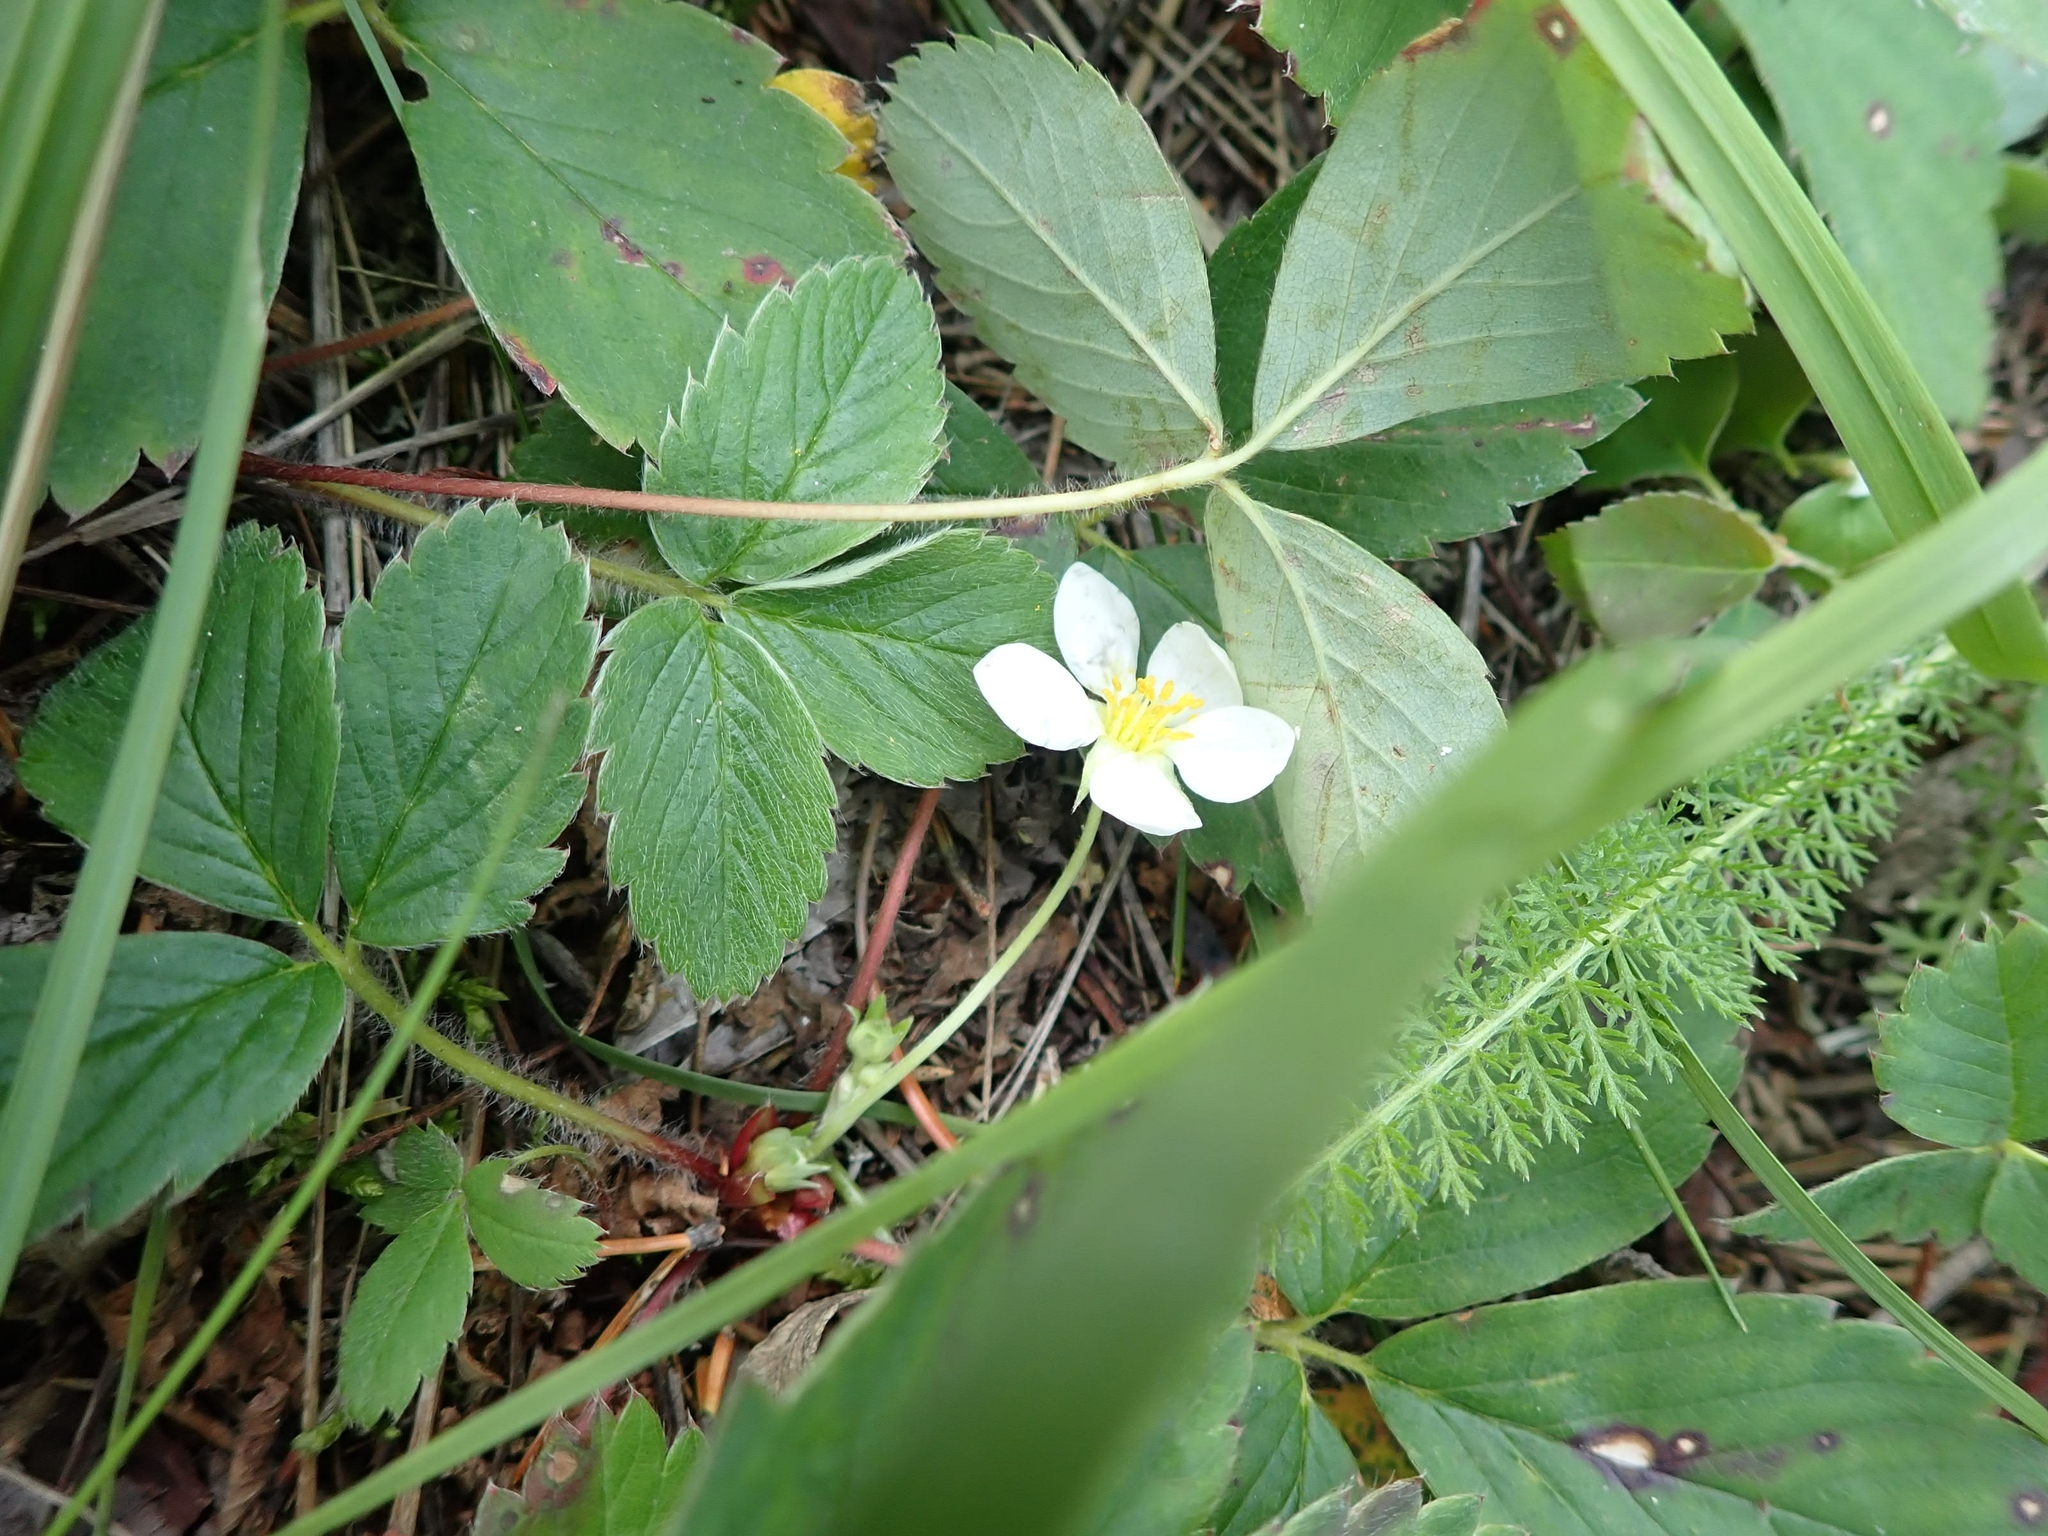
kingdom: Plantae
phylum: Tracheophyta
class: Magnoliopsida
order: Rosales
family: Rosaceae
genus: Fragaria
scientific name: Fragaria virginiana
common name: Thickleaved wild strawberry
